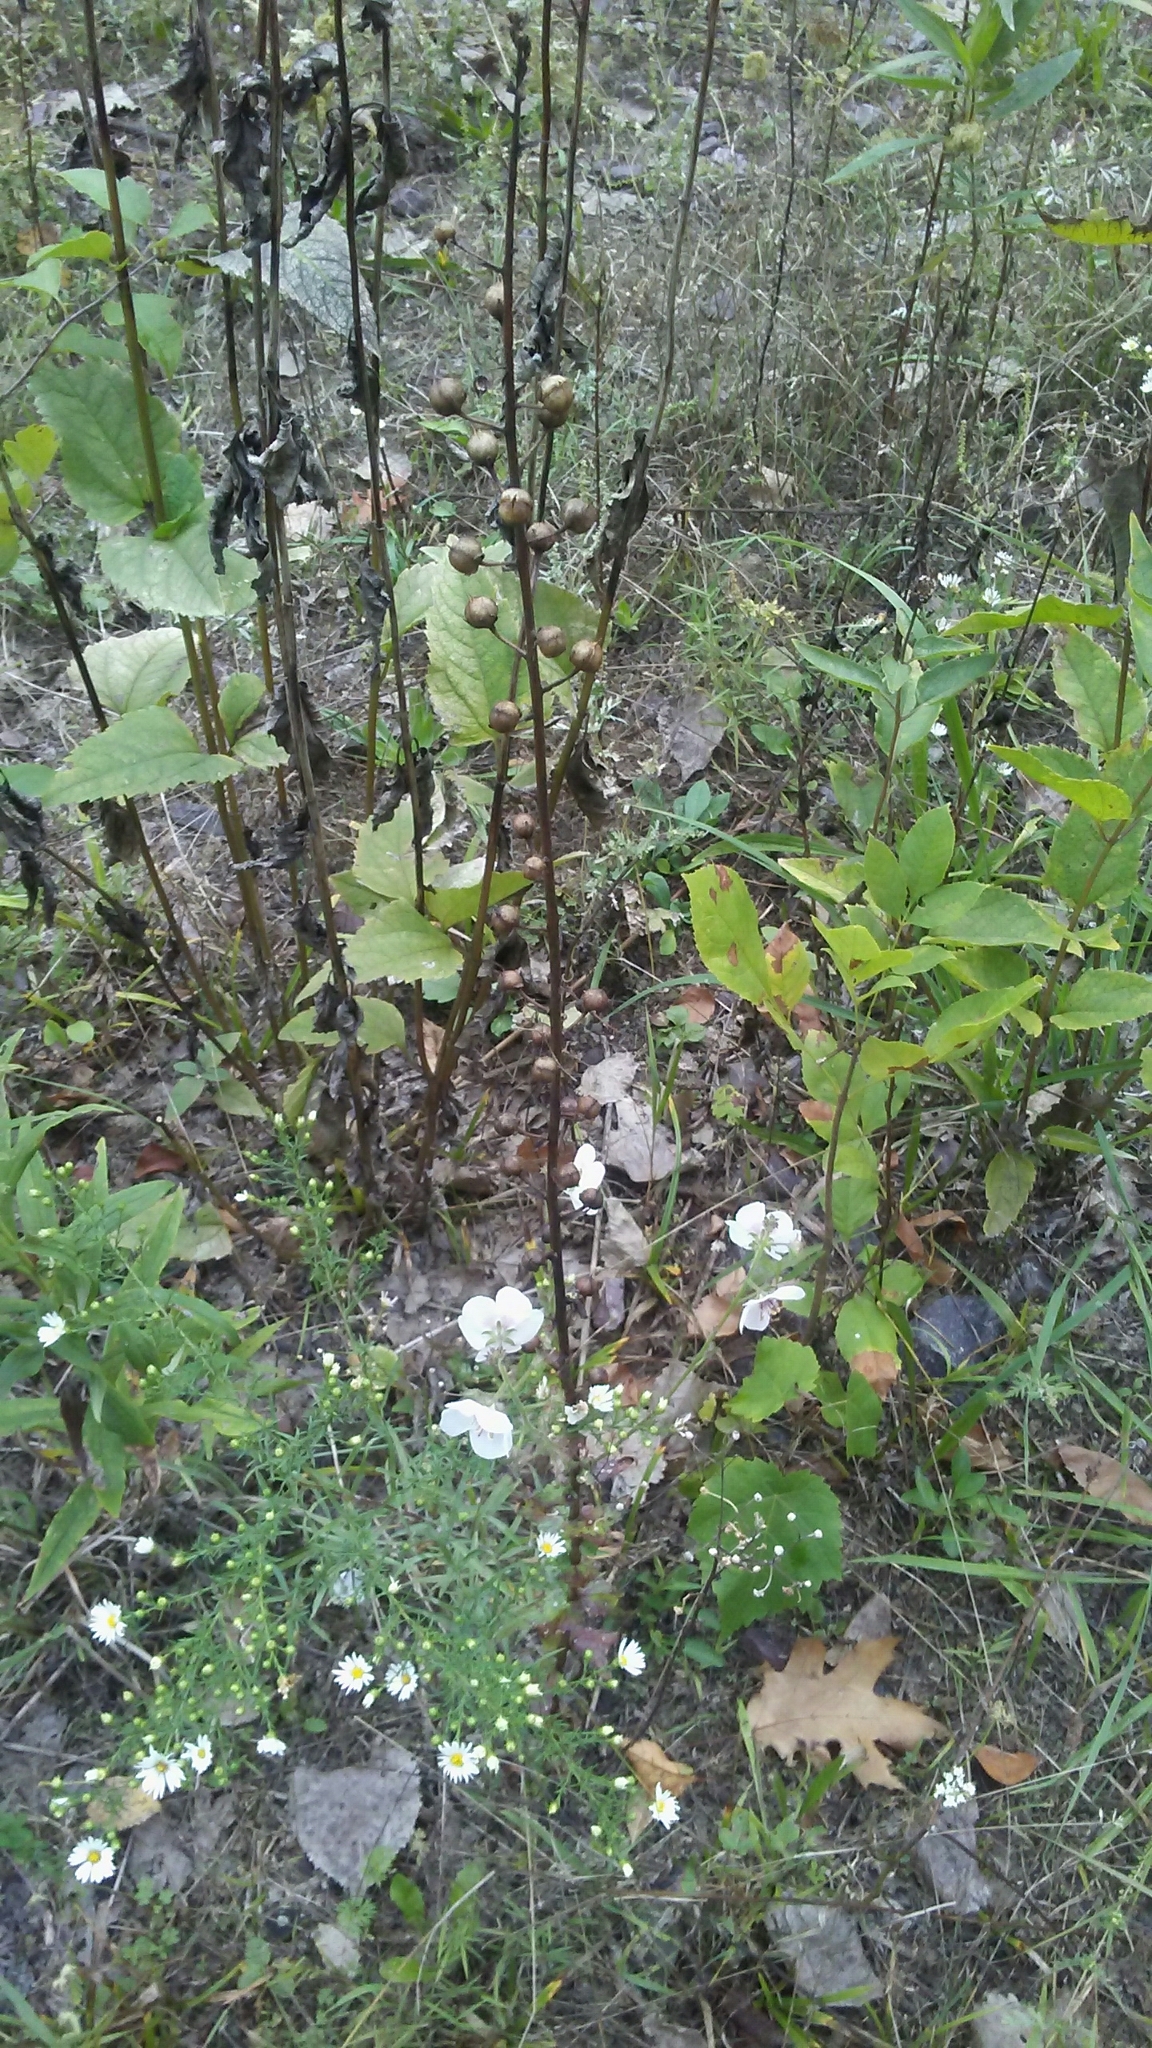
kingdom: Plantae
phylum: Tracheophyta
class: Magnoliopsida
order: Lamiales
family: Scrophulariaceae
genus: Verbascum
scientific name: Verbascum blattaria
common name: Moth mullein
